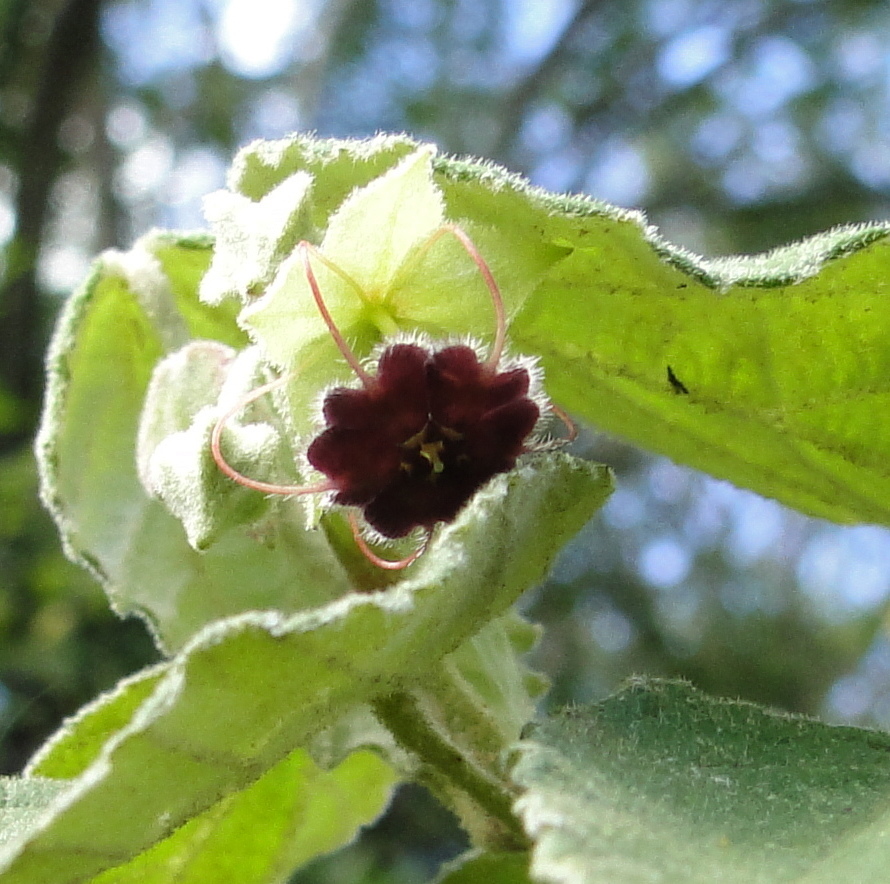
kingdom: Plantae
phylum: Tracheophyta
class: Magnoliopsida
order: Malvales
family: Malvaceae
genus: Ayenia
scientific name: Ayenia ovata
